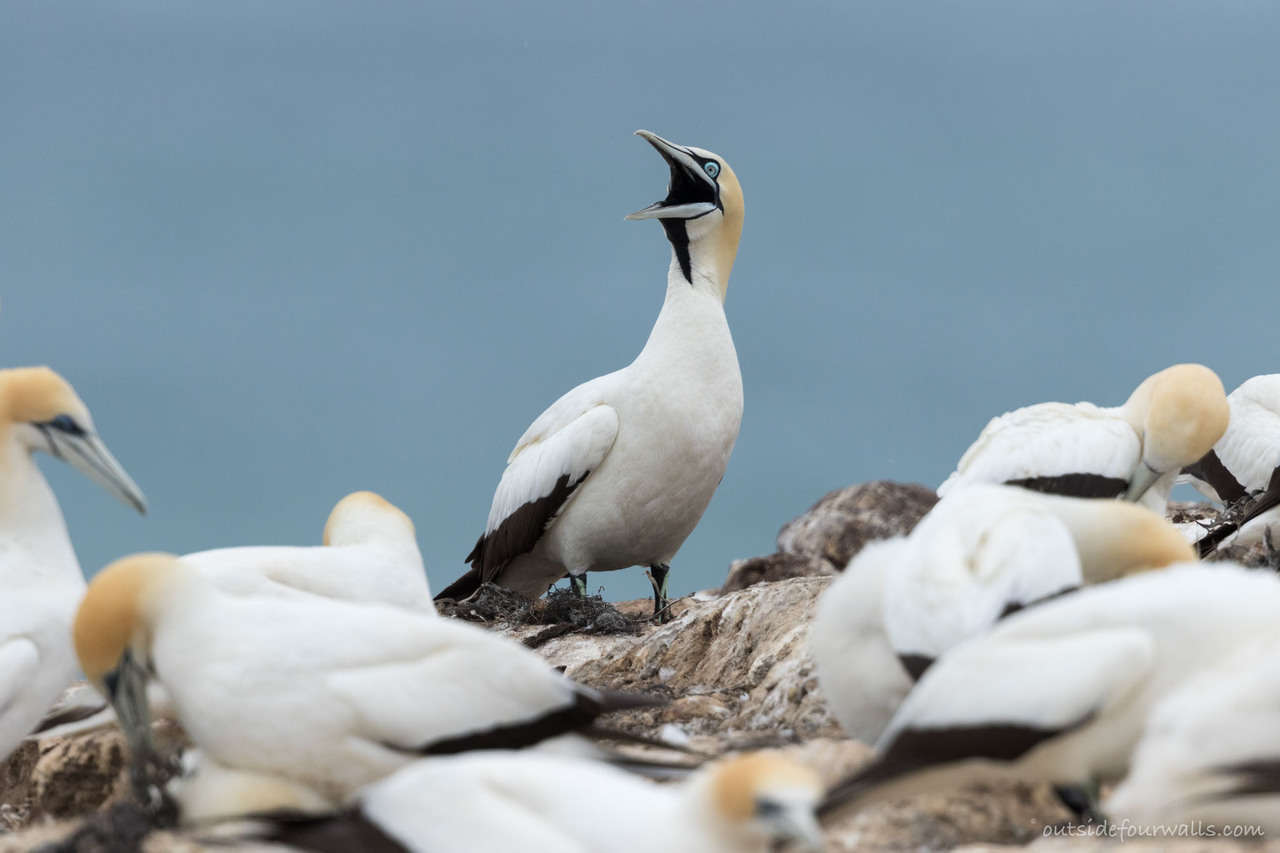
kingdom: Animalia
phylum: Chordata
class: Aves
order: Suliformes
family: Sulidae
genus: Morus
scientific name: Morus capensis
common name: Cape gannet
